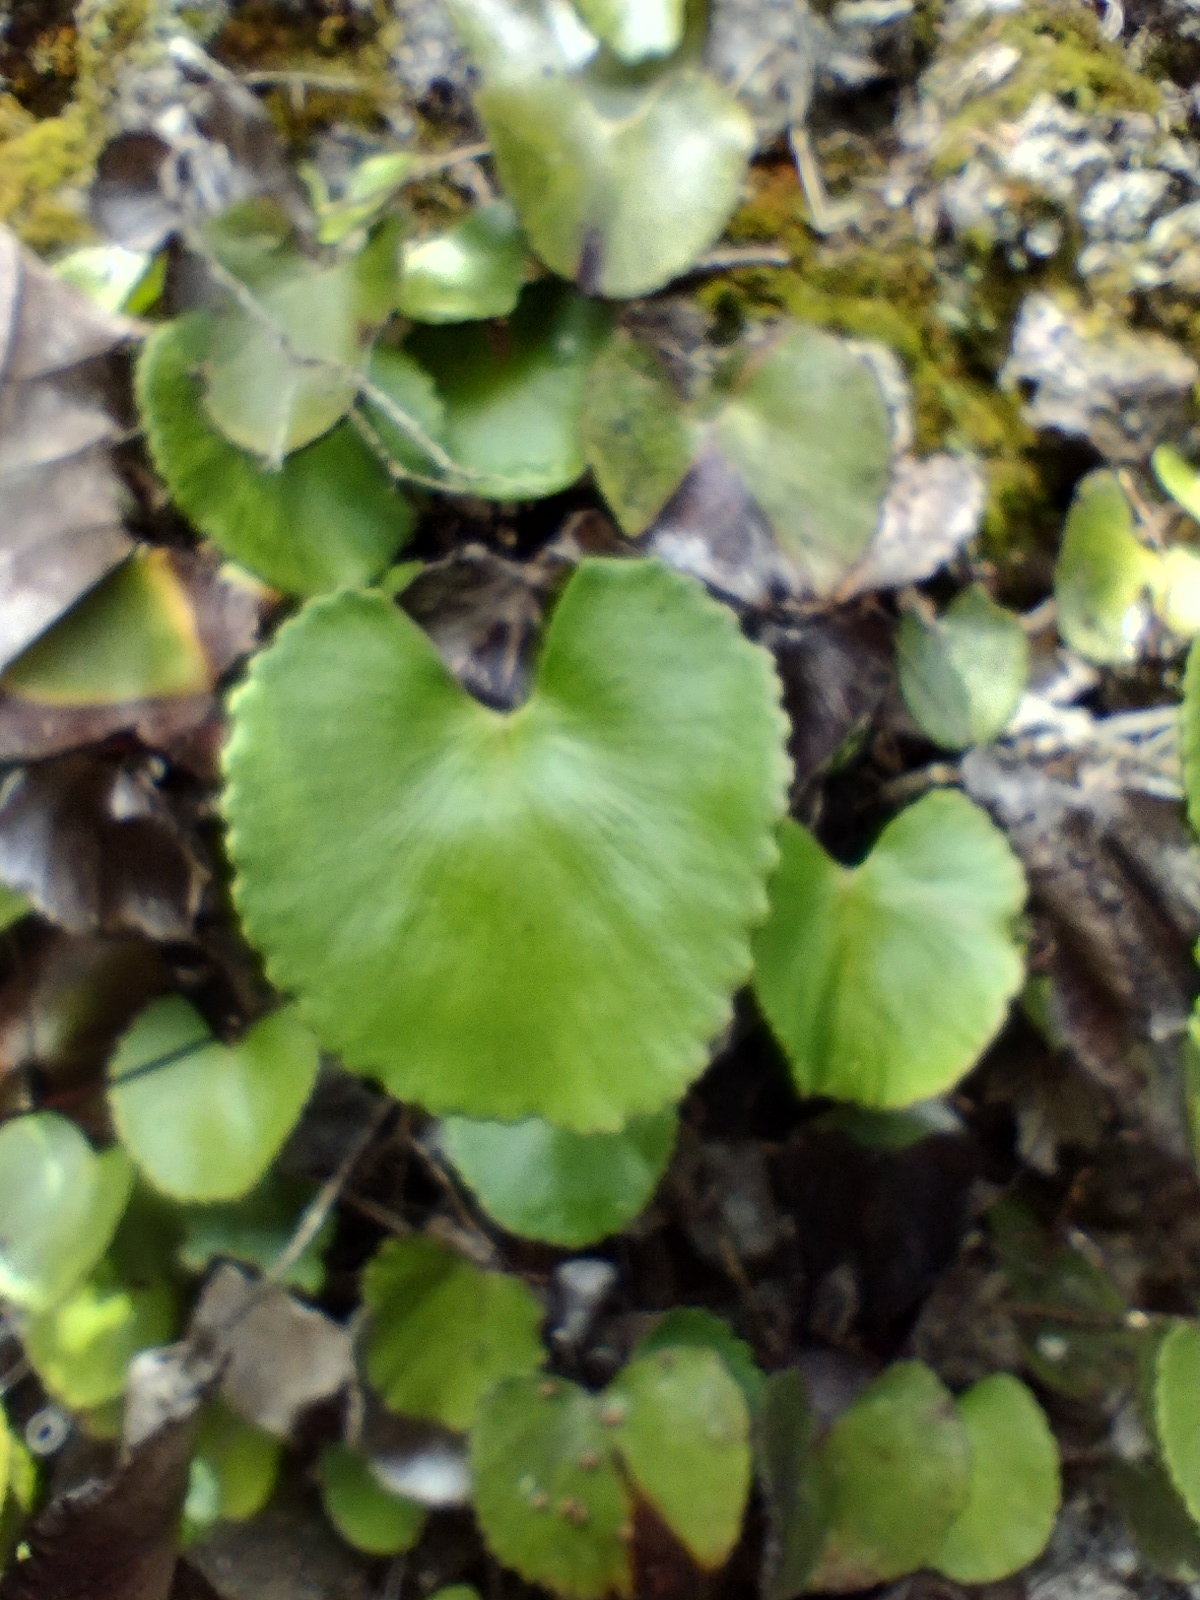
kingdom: Plantae
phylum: Tracheophyta
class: Polypodiopsida
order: Polypodiales
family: Pteridaceae
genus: Adiantum
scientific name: Adiantum reniforme
